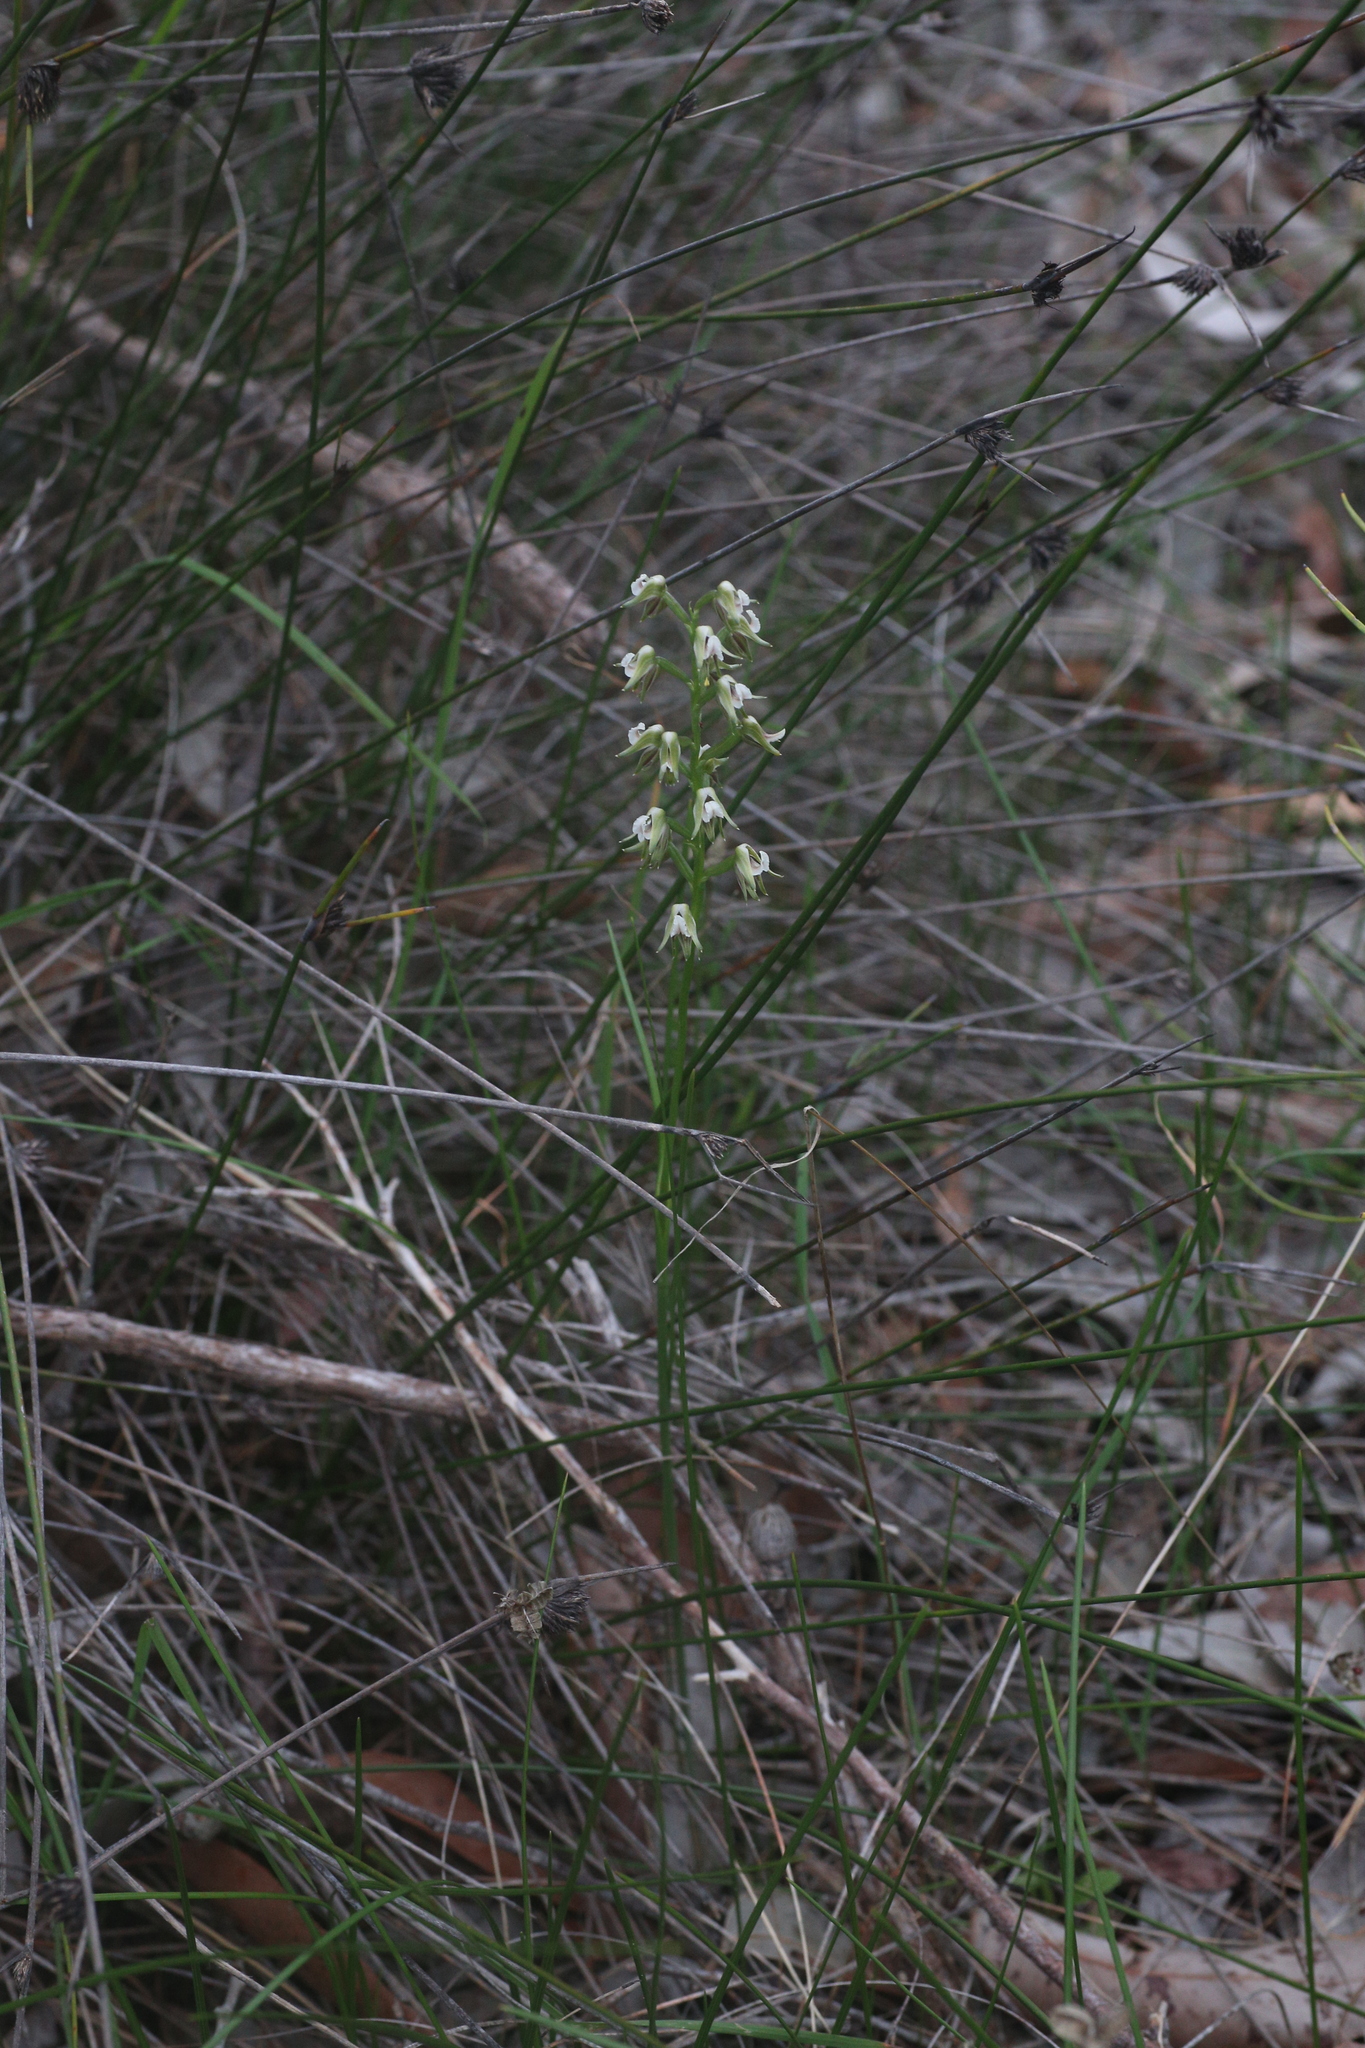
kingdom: Plantae
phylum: Tracheophyta
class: Liliopsida
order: Asparagales
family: Orchidaceae
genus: Prasophyllum
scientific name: Prasophyllum parvifolium
